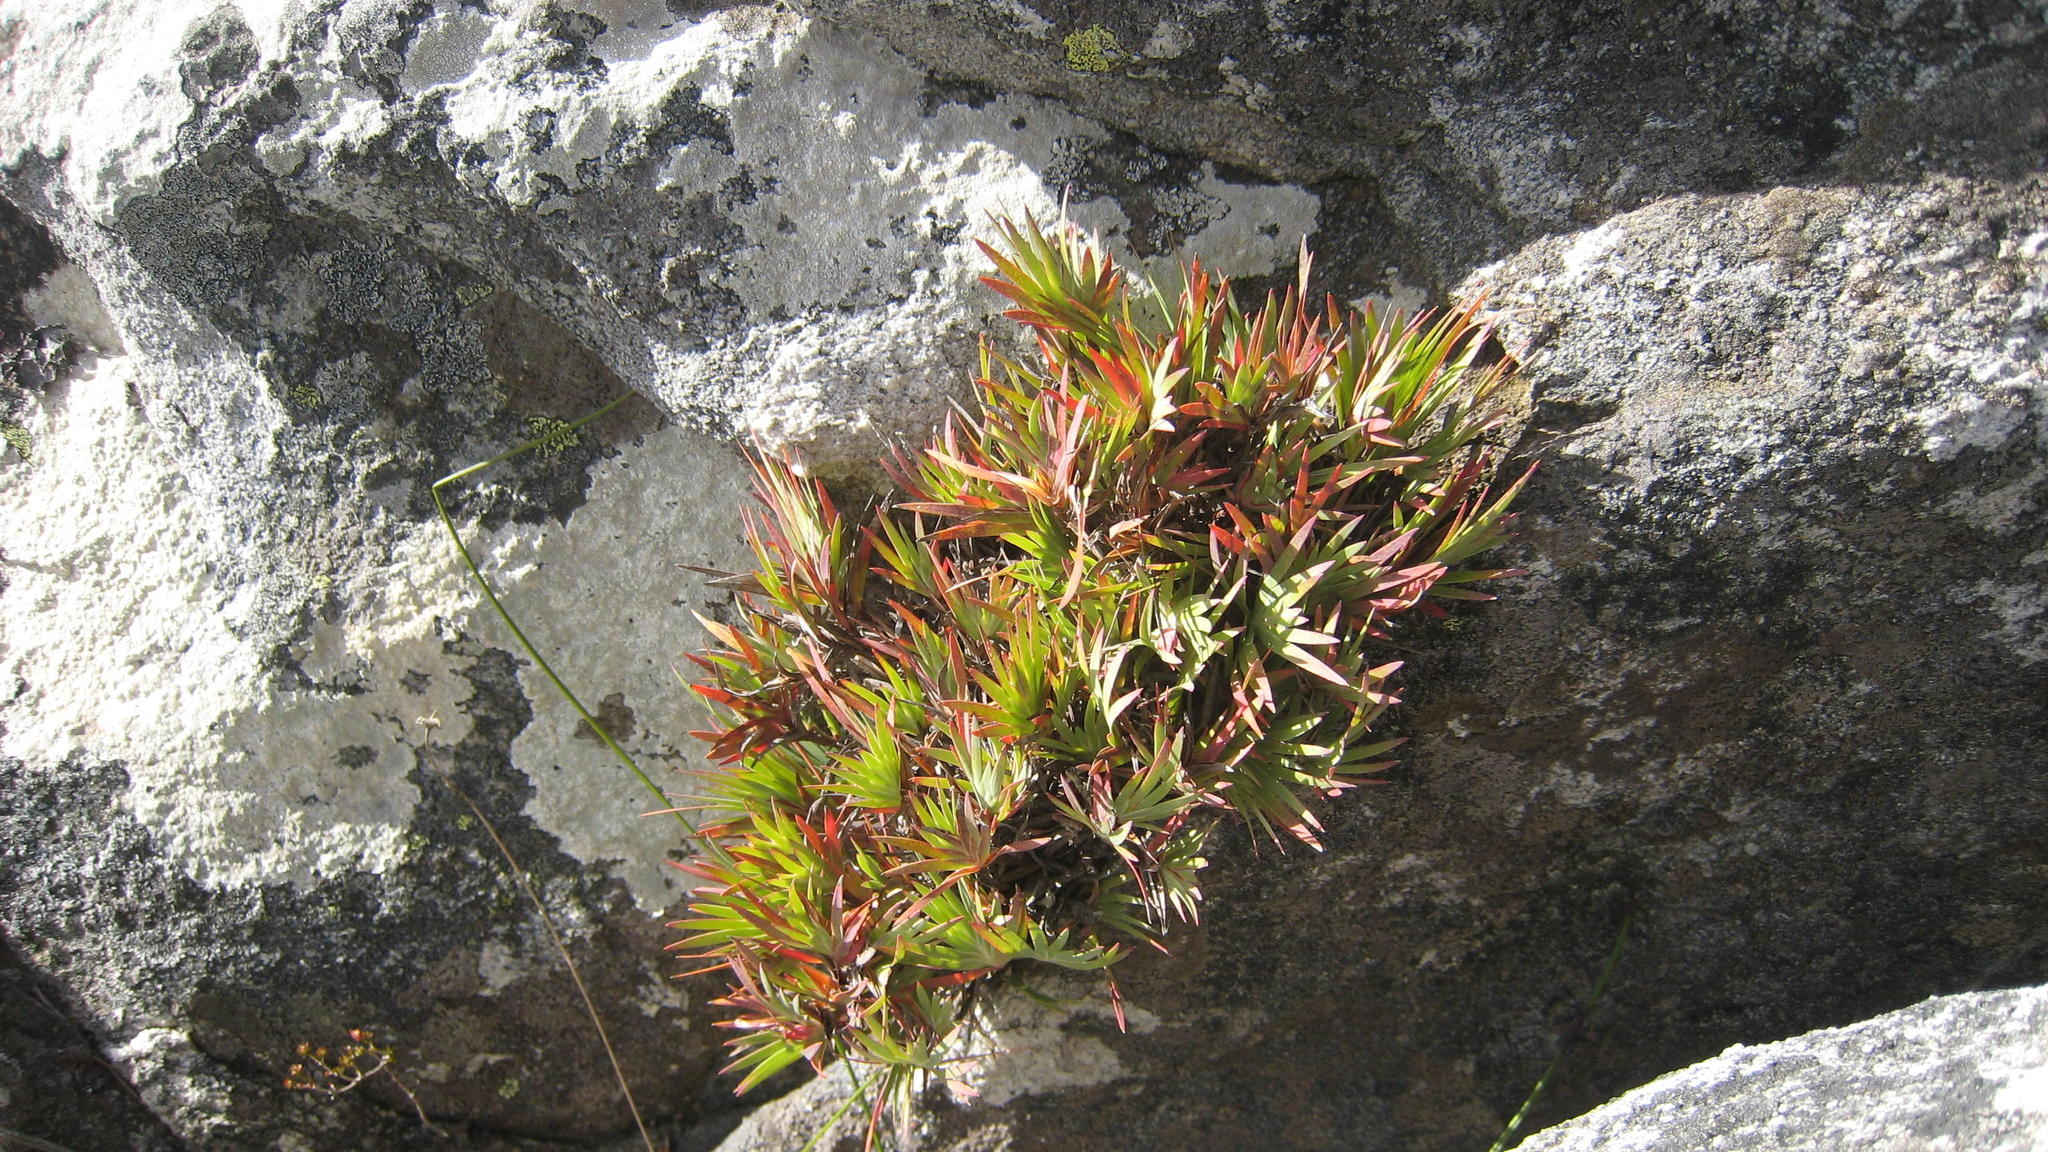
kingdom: Plantae
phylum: Tracheophyta
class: Liliopsida
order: Asparagales
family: Iridaceae
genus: Nivenia
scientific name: Nivenia fruticosa
